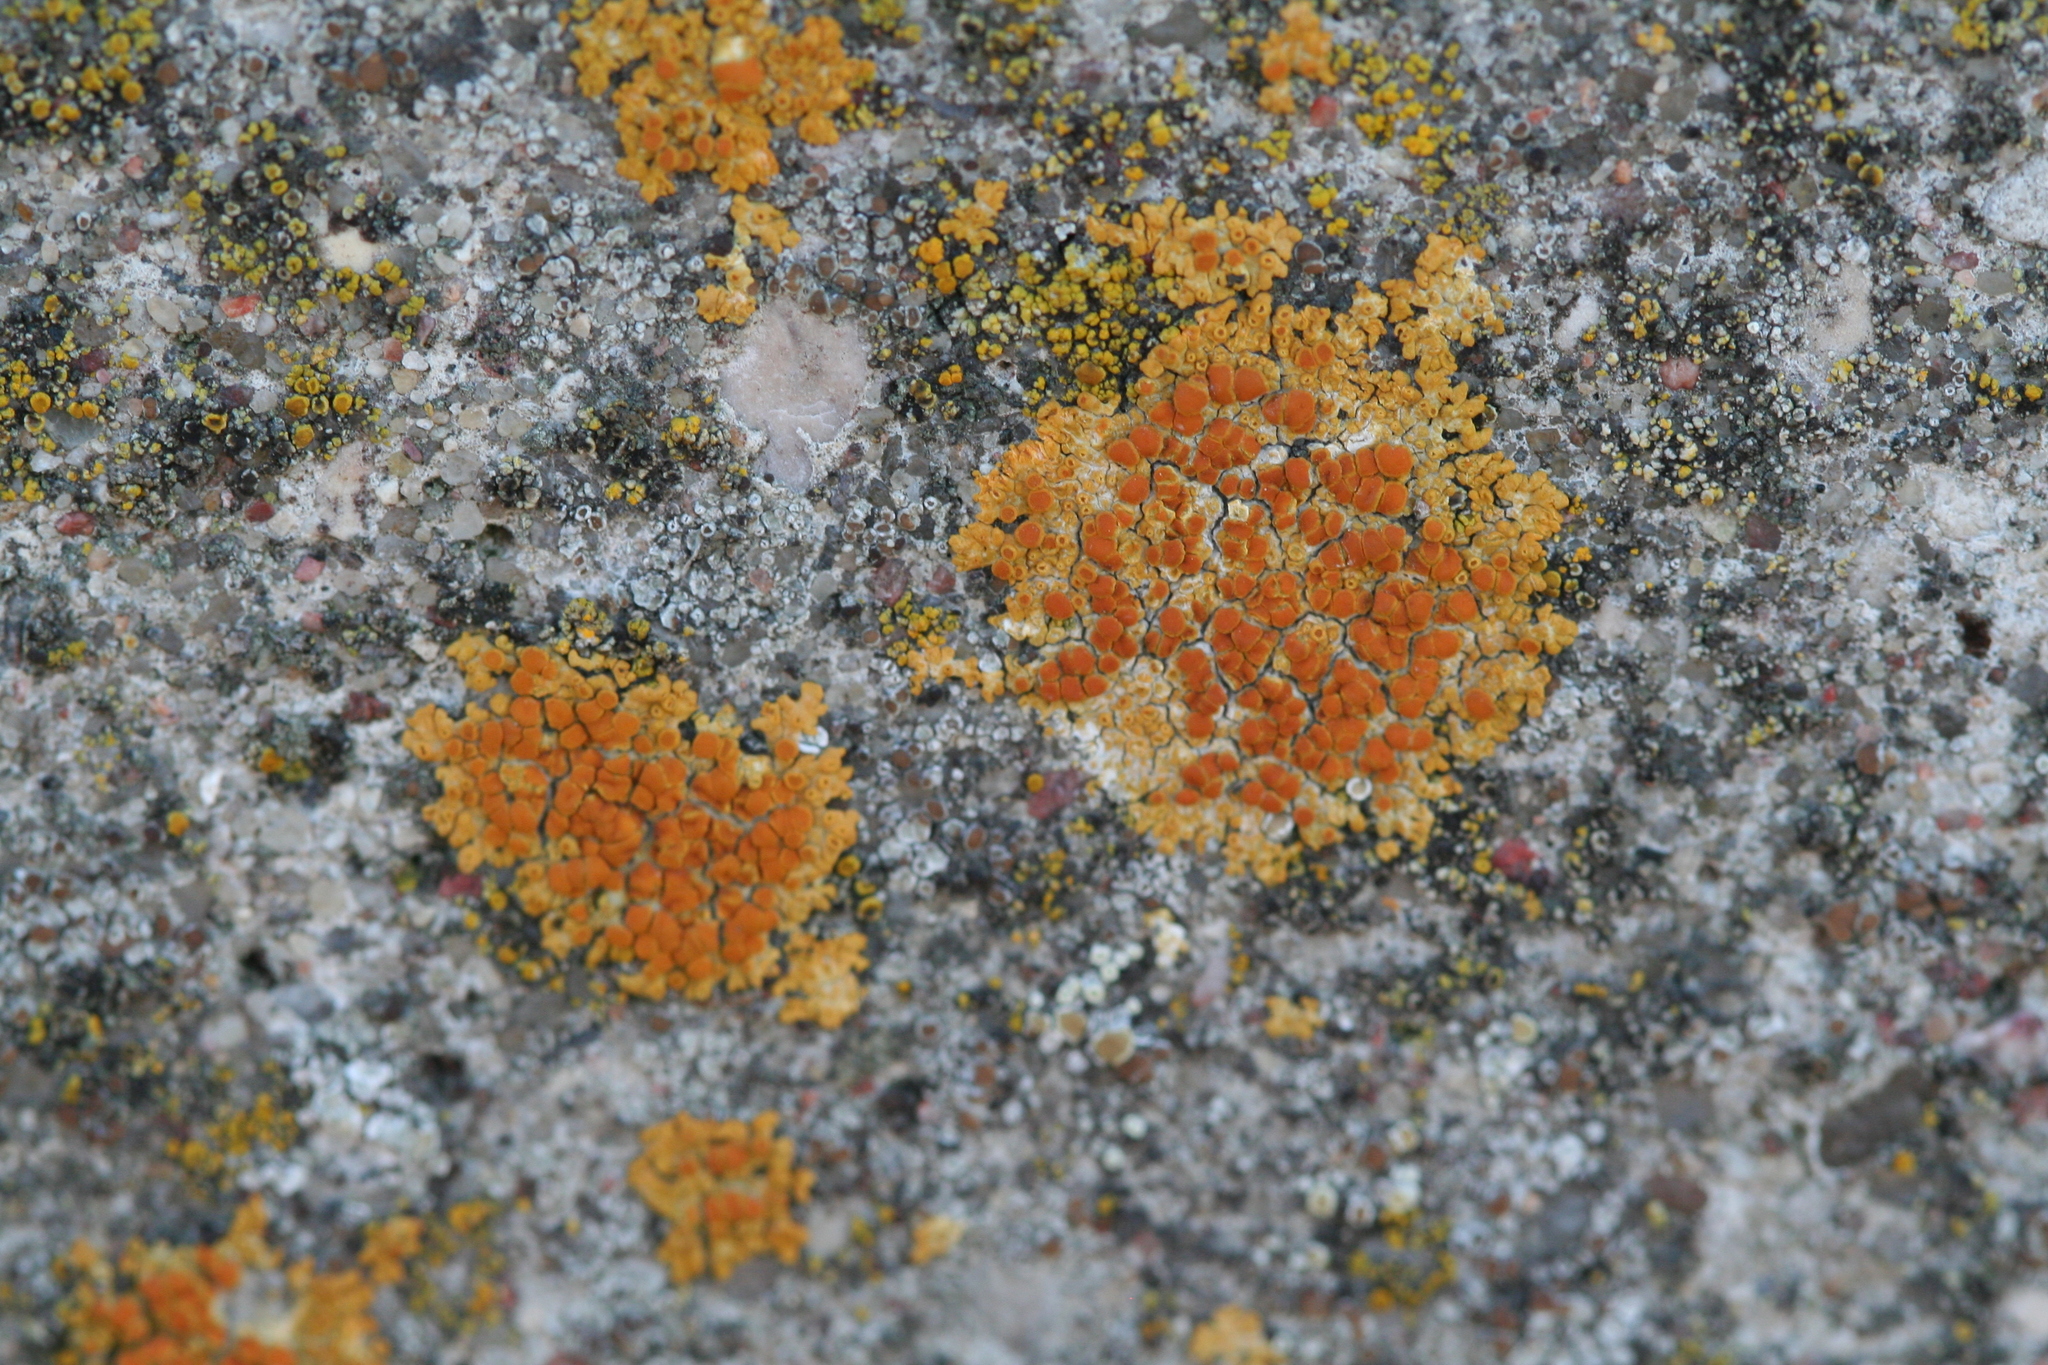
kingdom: Fungi
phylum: Ascomycota
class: Lecanoromycetes
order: Teloschistales
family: Teloschistaceae
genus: Calogaya
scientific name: Calogaya saxicola
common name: Rock jewel lichen
